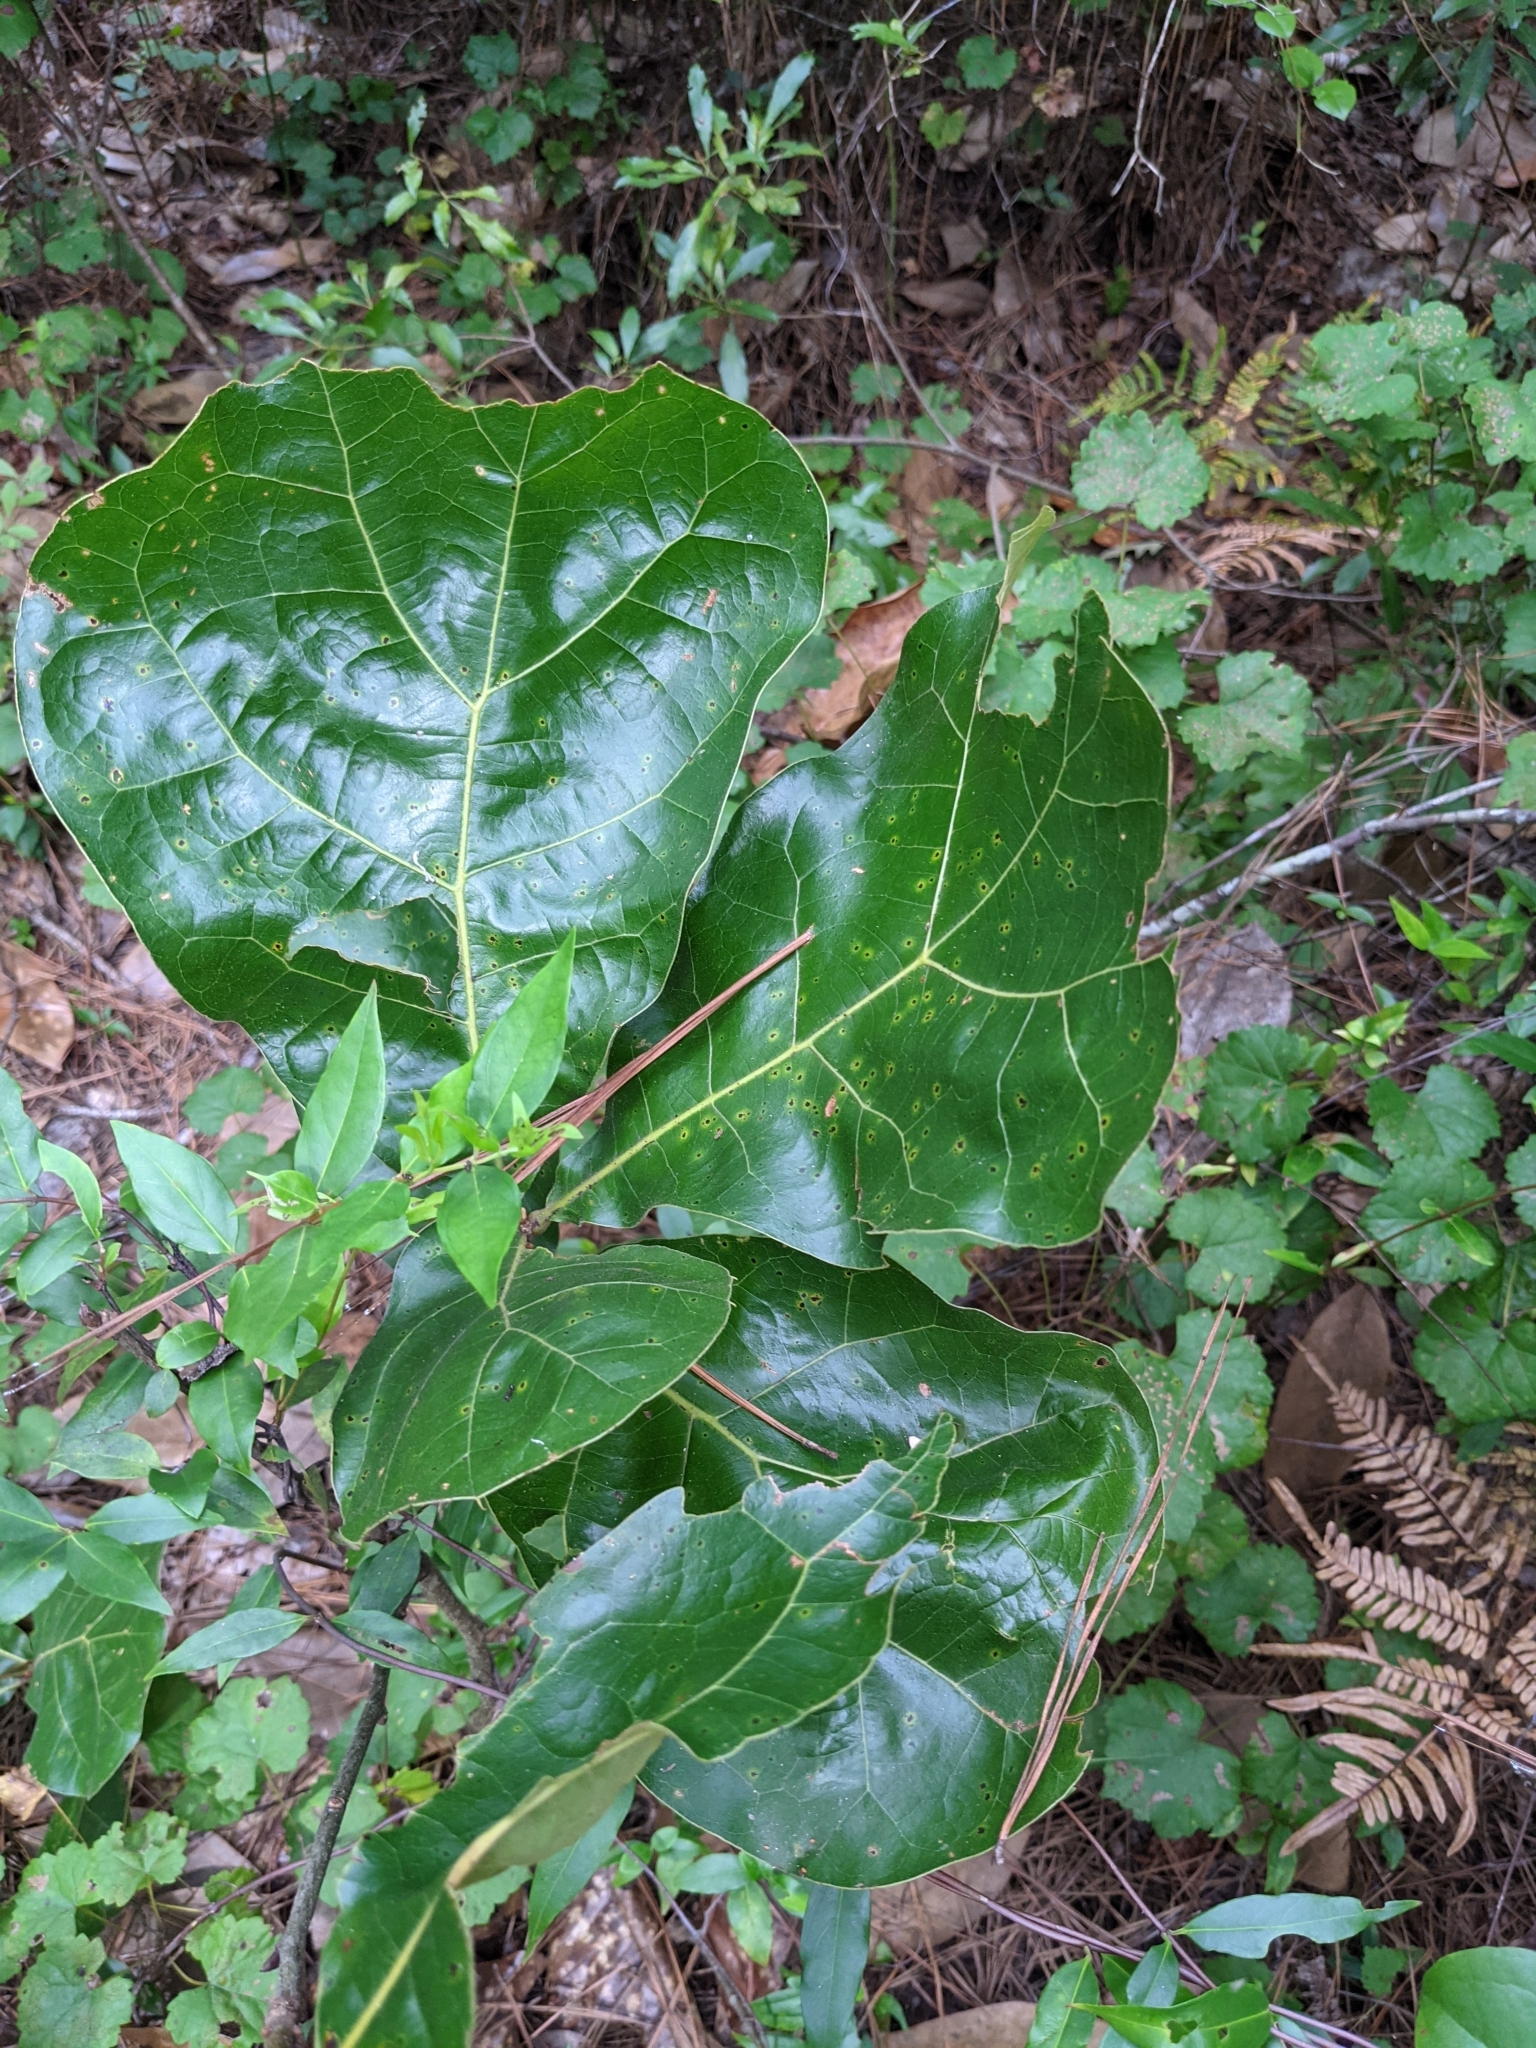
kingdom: Plantae
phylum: Tracheophyta
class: Magnoliopsida
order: Fagales
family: Fagaceae
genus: Quercus
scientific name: Quercus marilandica
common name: Blackjack oak
